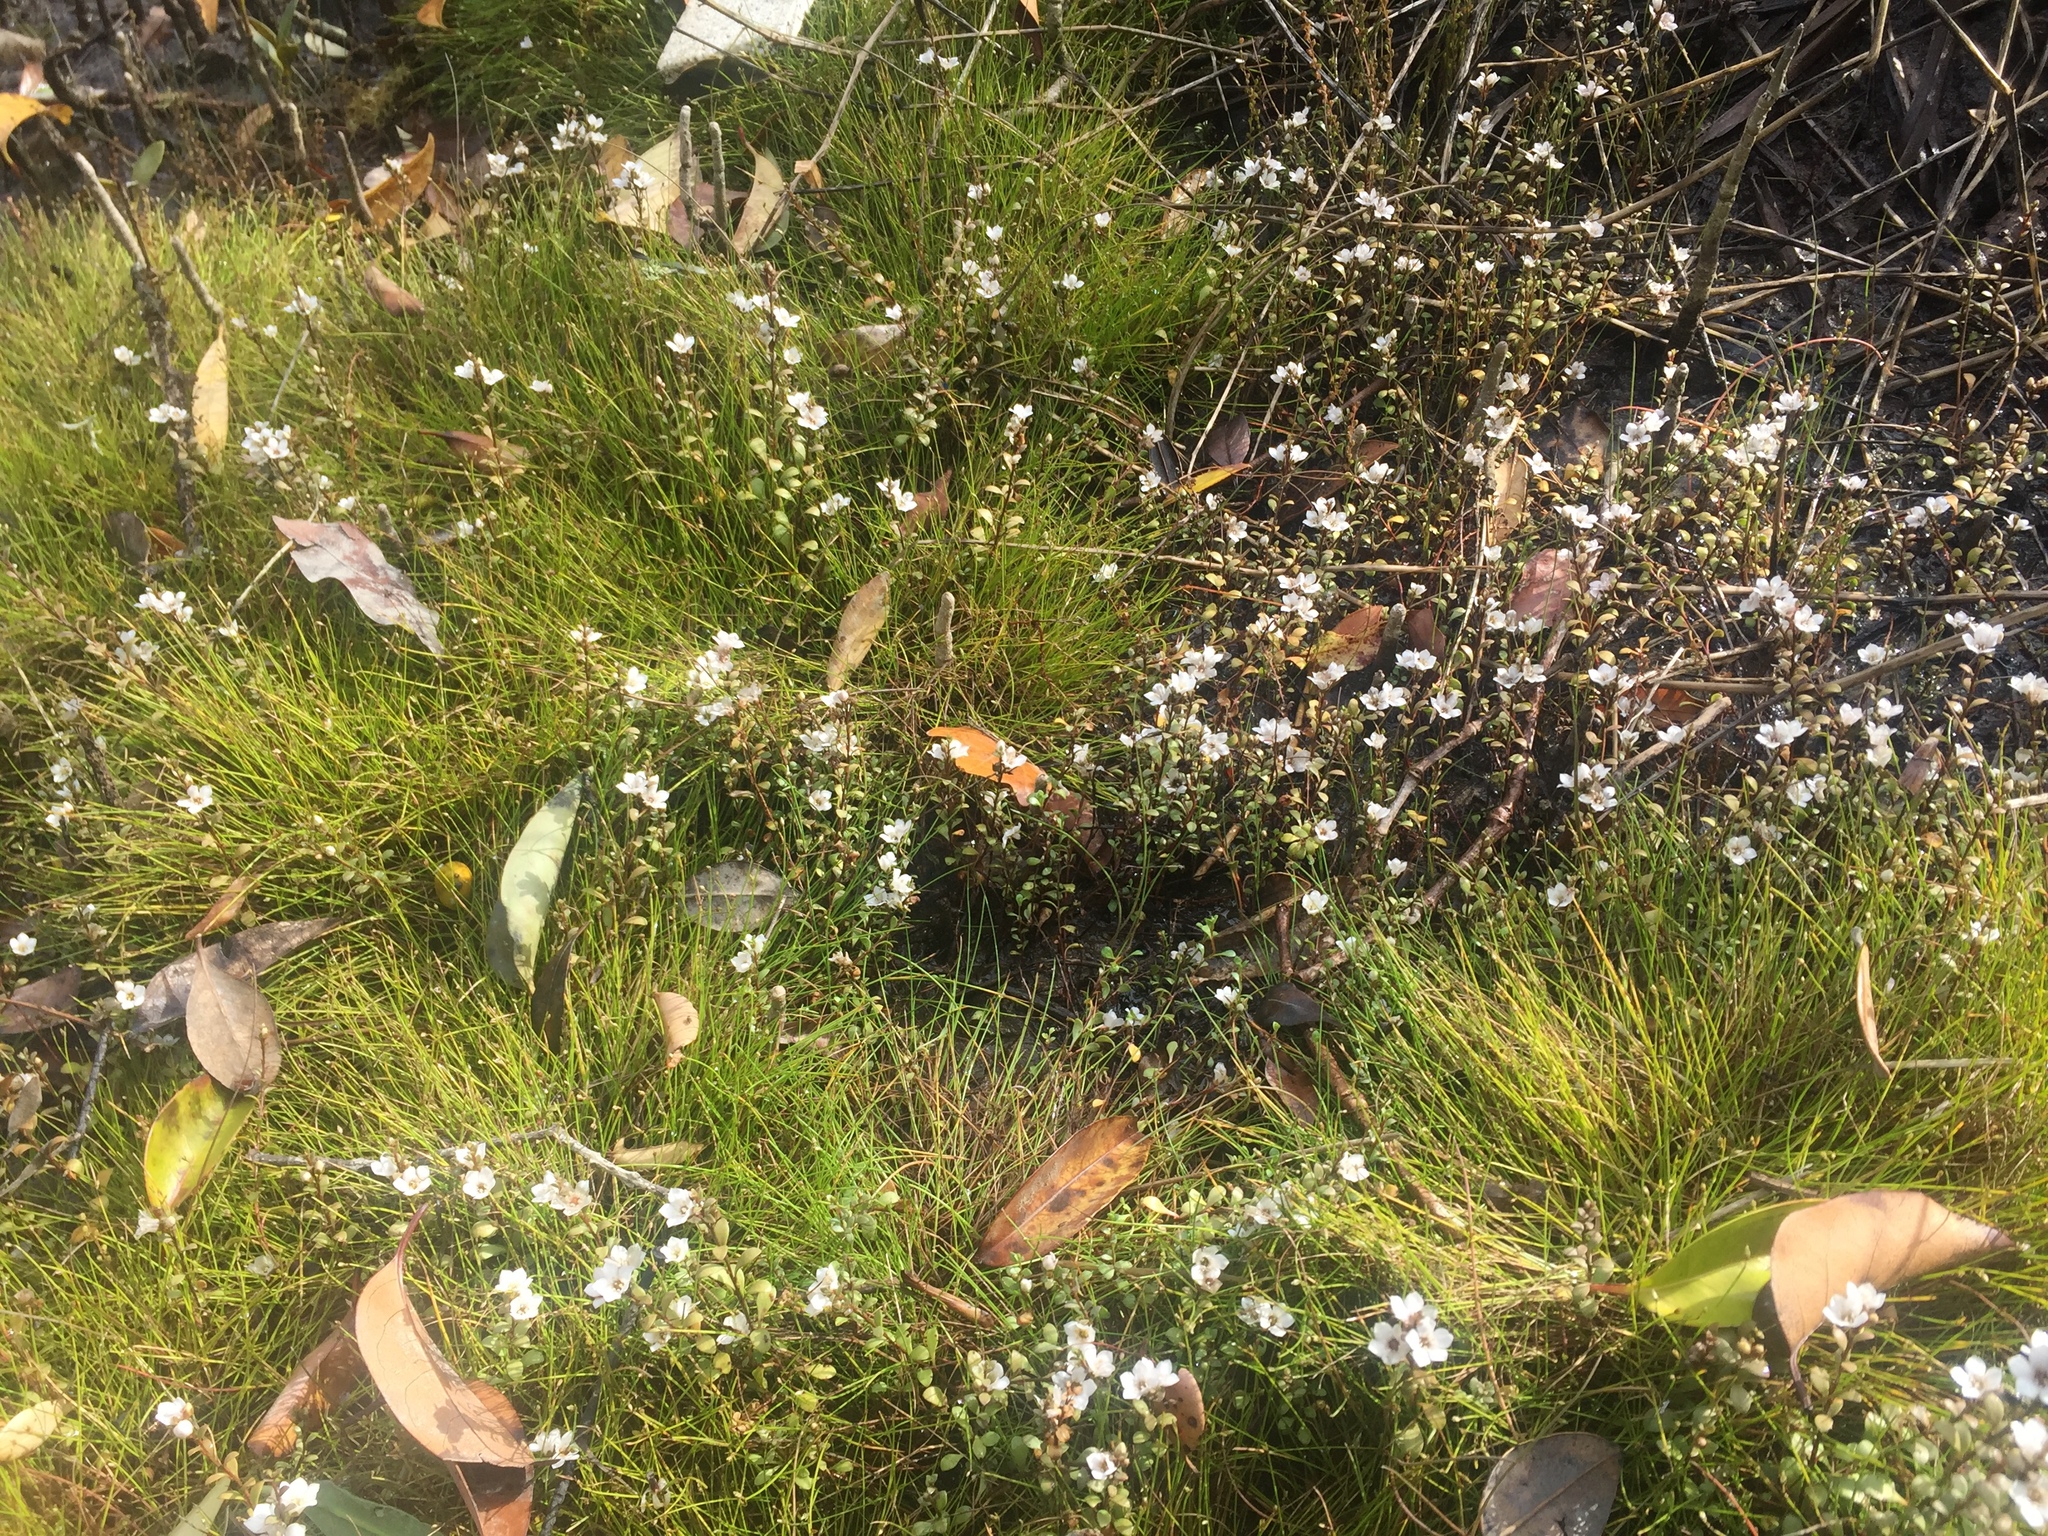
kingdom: Plantae
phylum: Tracheophyta
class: Magnoliopsida
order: Ericales
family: Primulaceae
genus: Samolus
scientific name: Samolus repens
